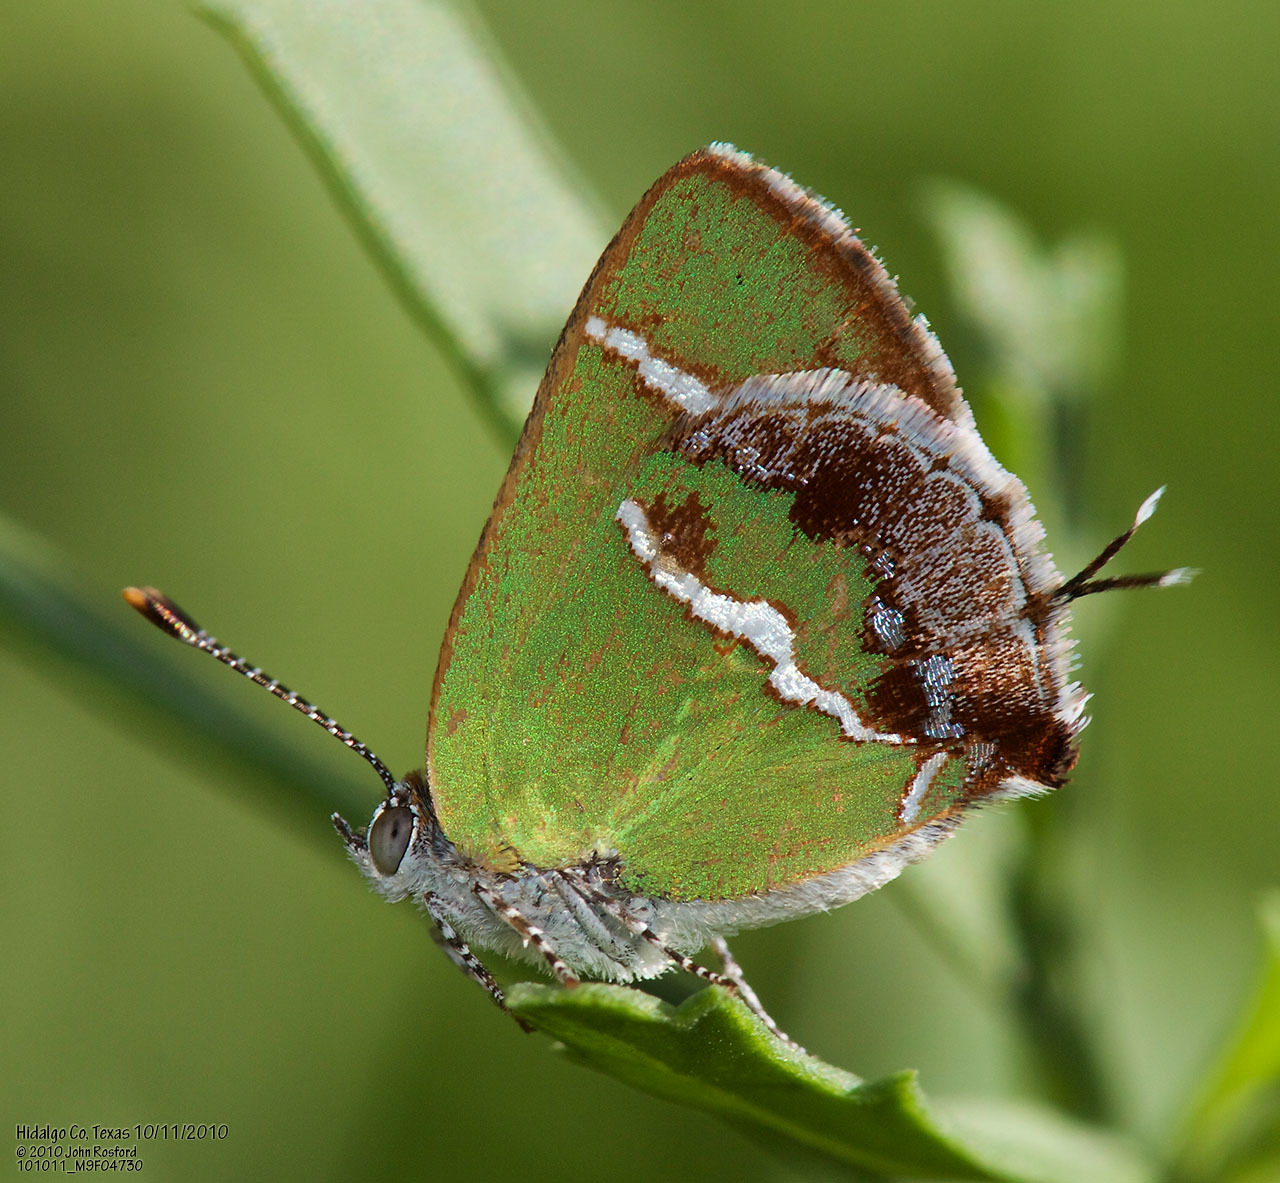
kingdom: Animalia
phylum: Arthropoda
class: Insecta
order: Lepidoptera
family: Lycaenidae
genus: Chlorostrymon
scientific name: Chlorostrymon simaethis
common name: Silver-banded hairstreak
